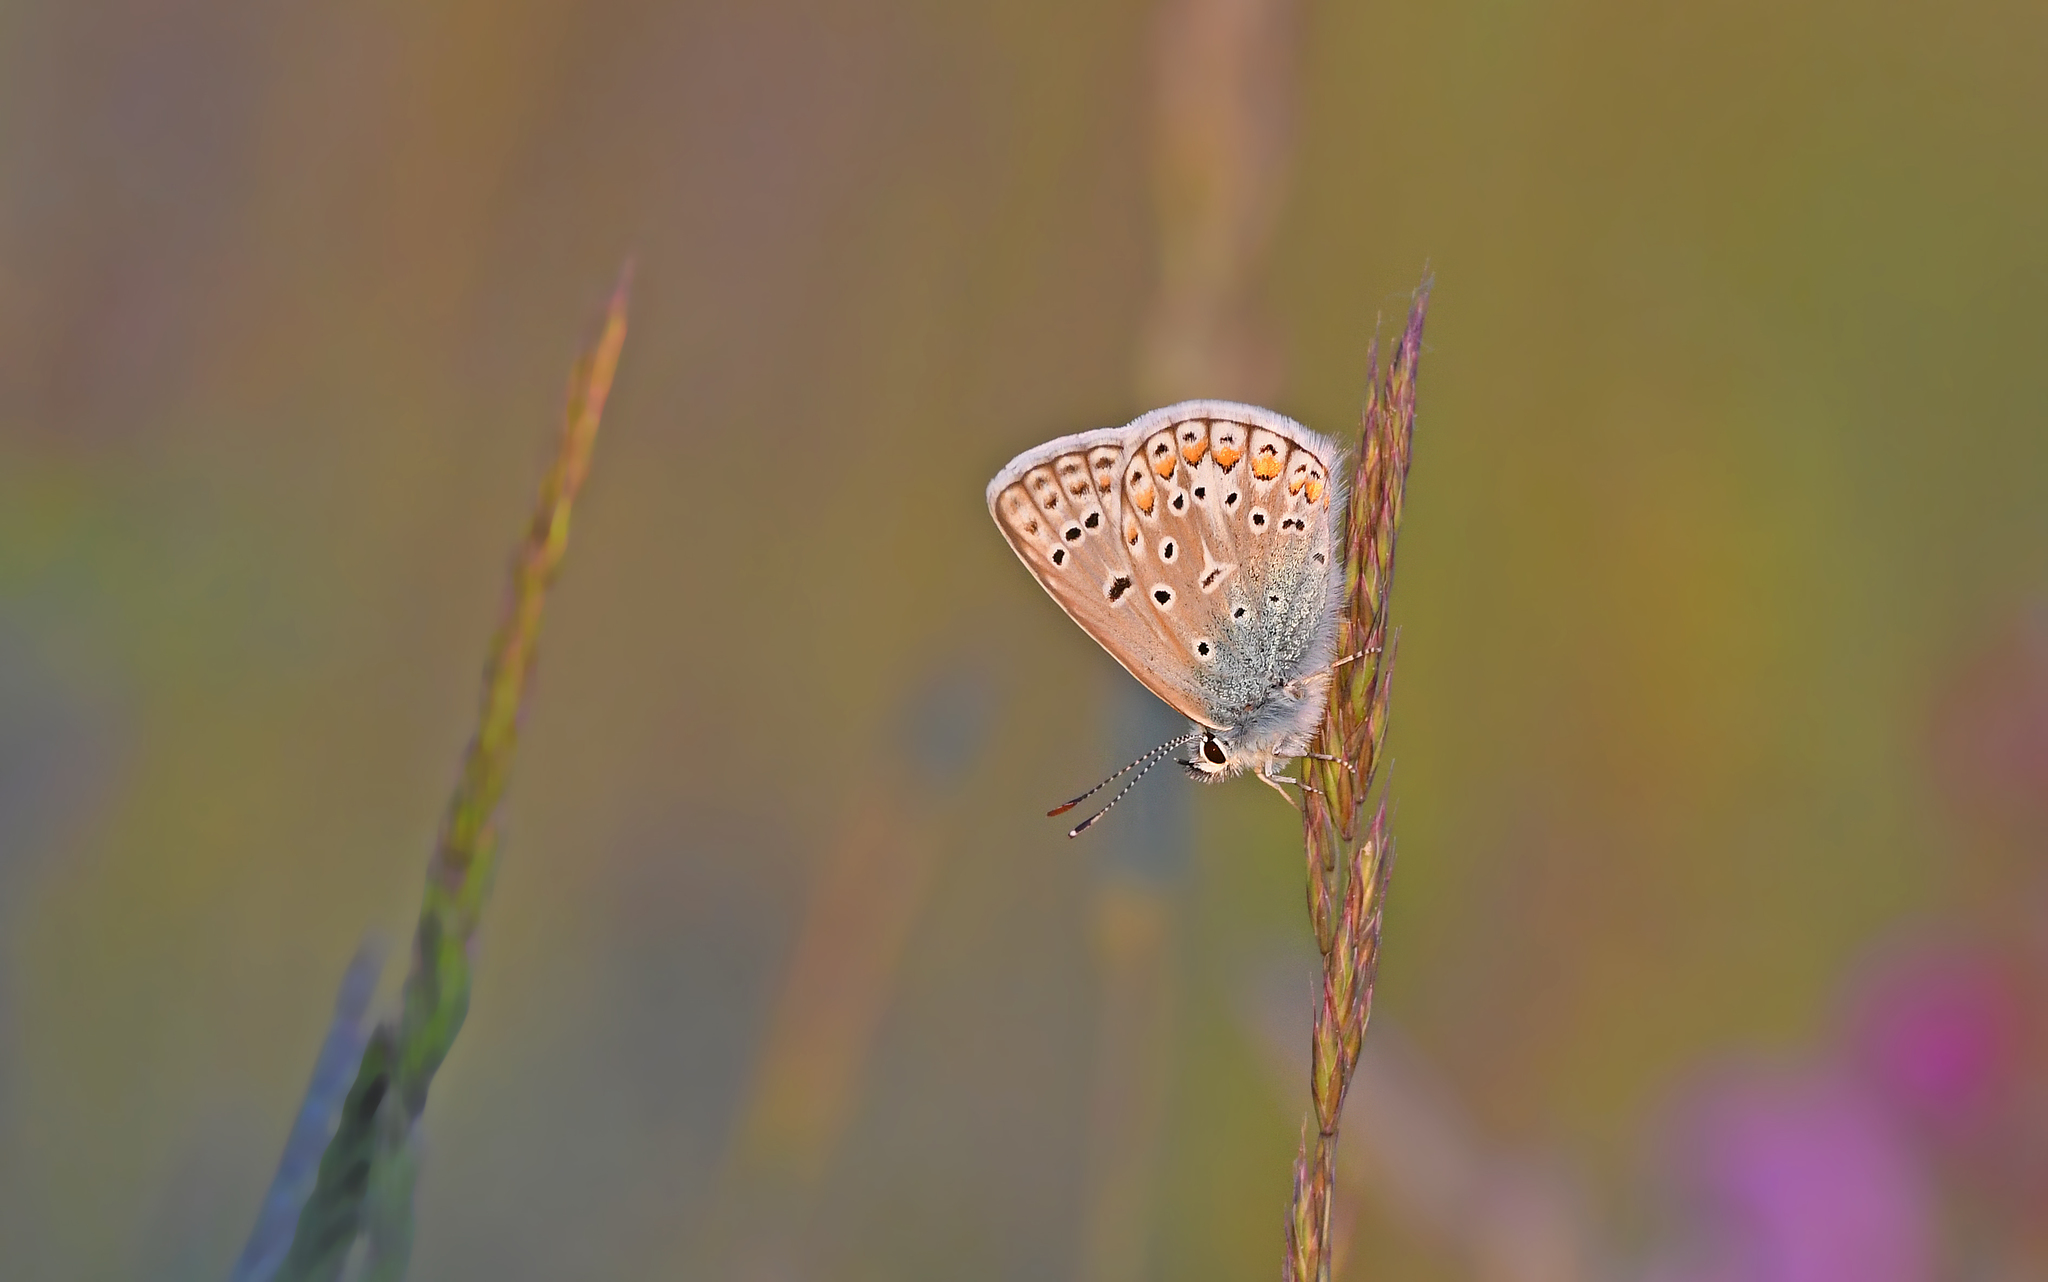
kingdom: Animalia
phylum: Arthropoda
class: Insecta
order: Lepidoptera
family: Lycaenidae
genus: Polyommatus
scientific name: Polyommatus icarus
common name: Common blue
